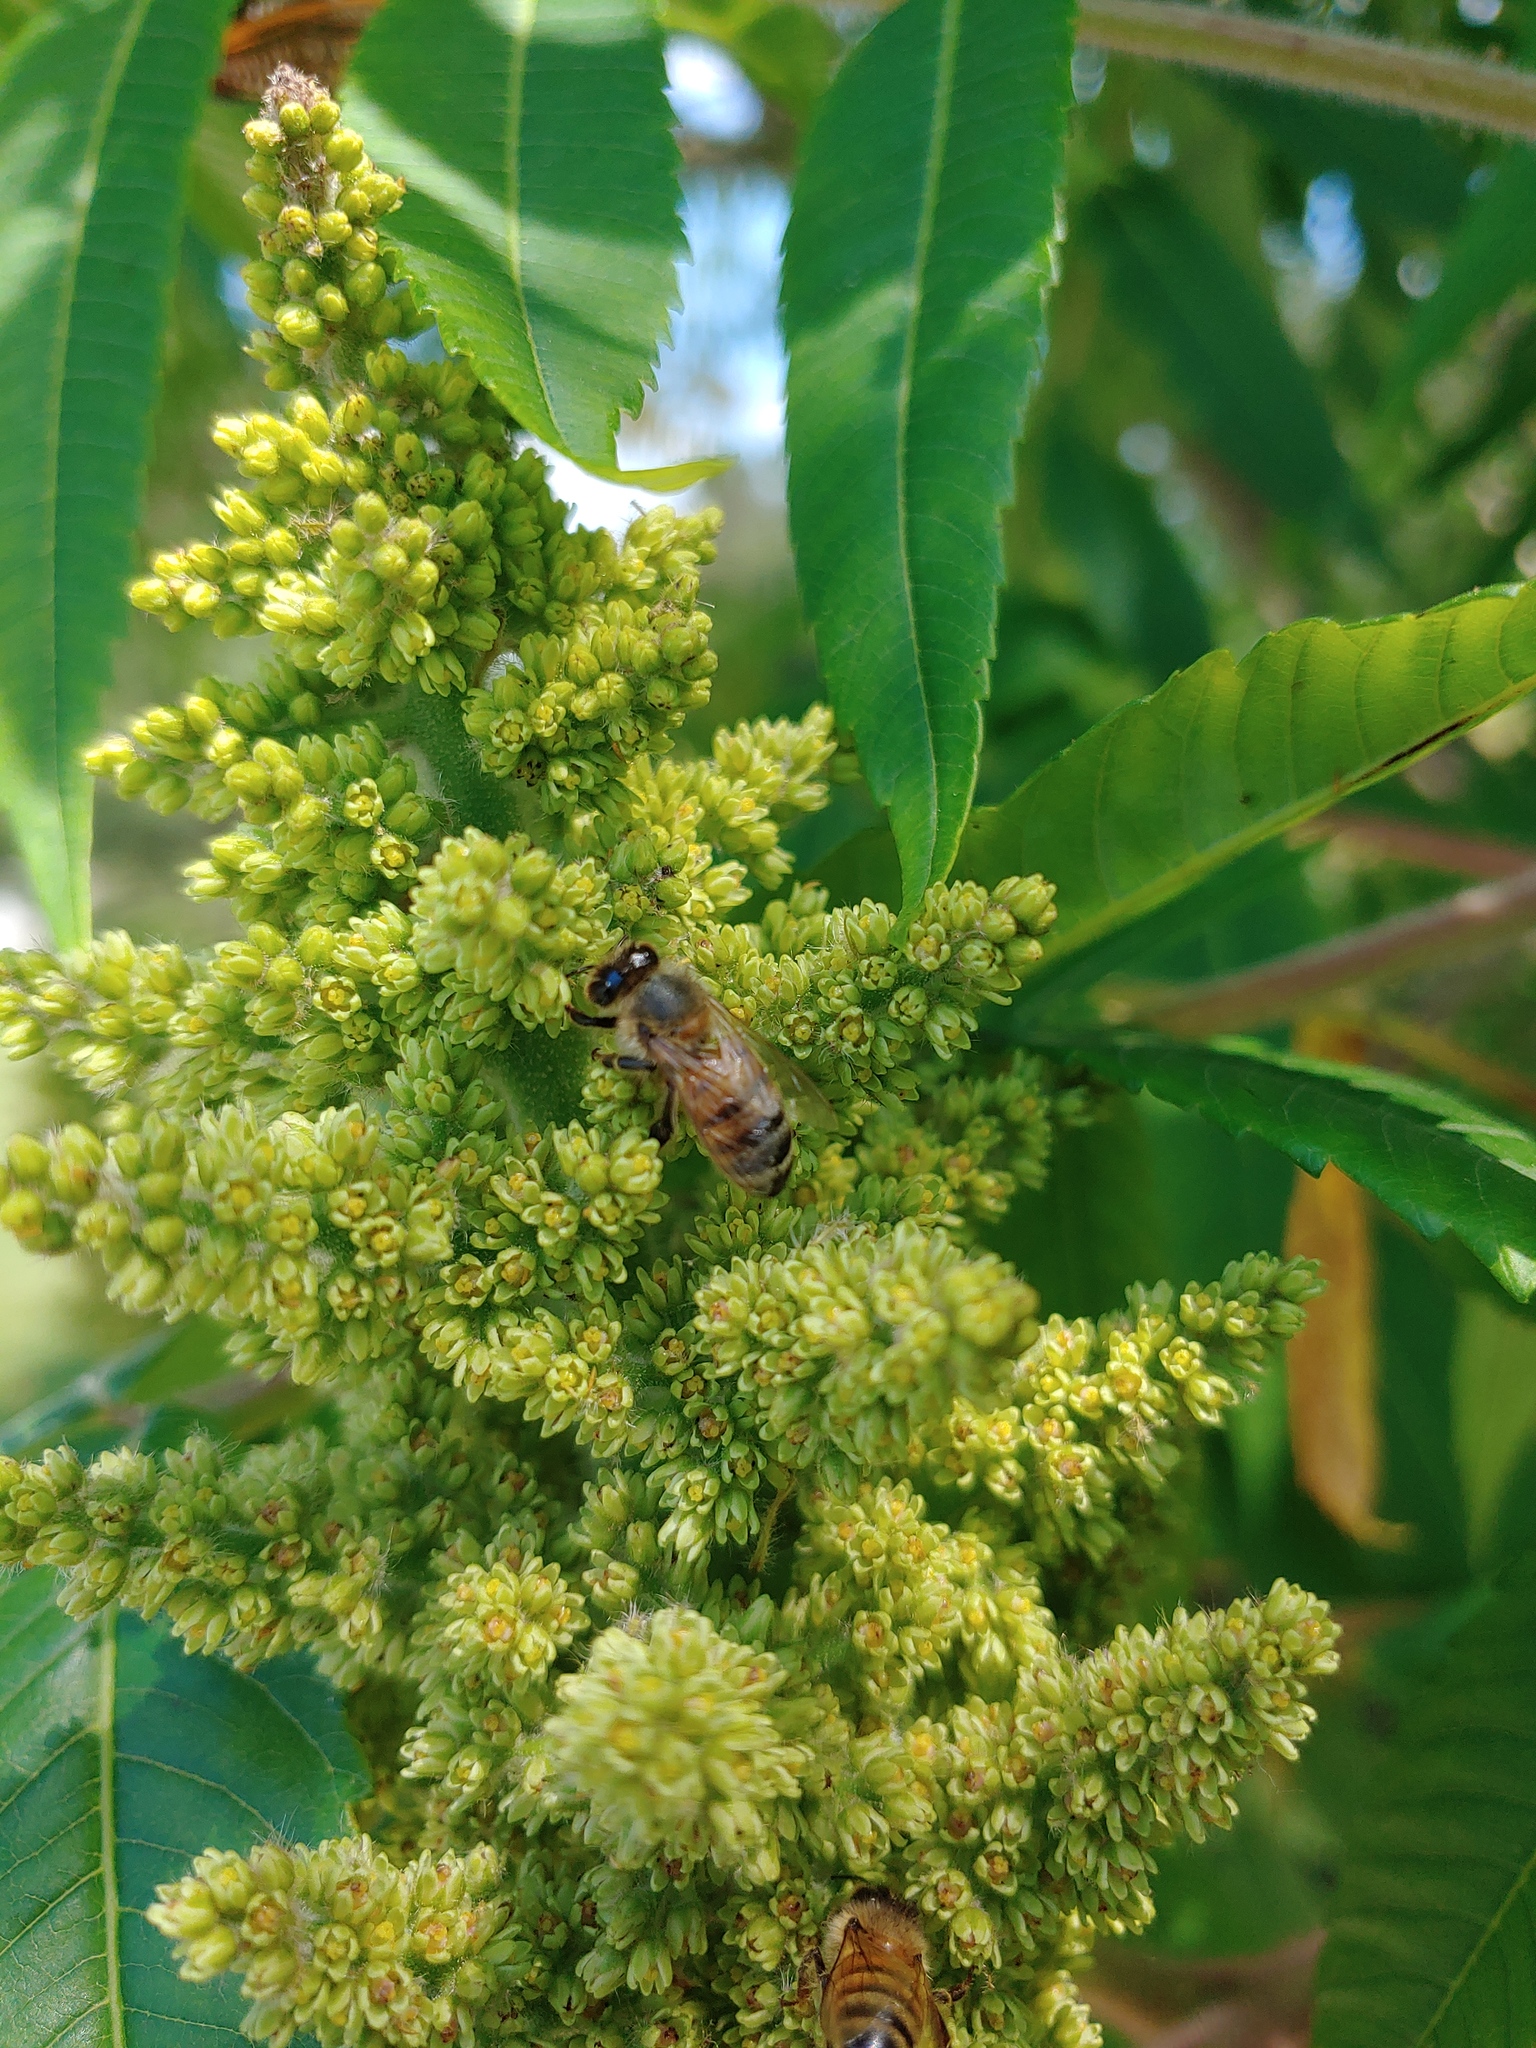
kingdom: Animalia
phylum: Arthropoda
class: Insecta
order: Hymenoptera
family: Apidae
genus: Apis
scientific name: Apis mellifera
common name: Honey bee
